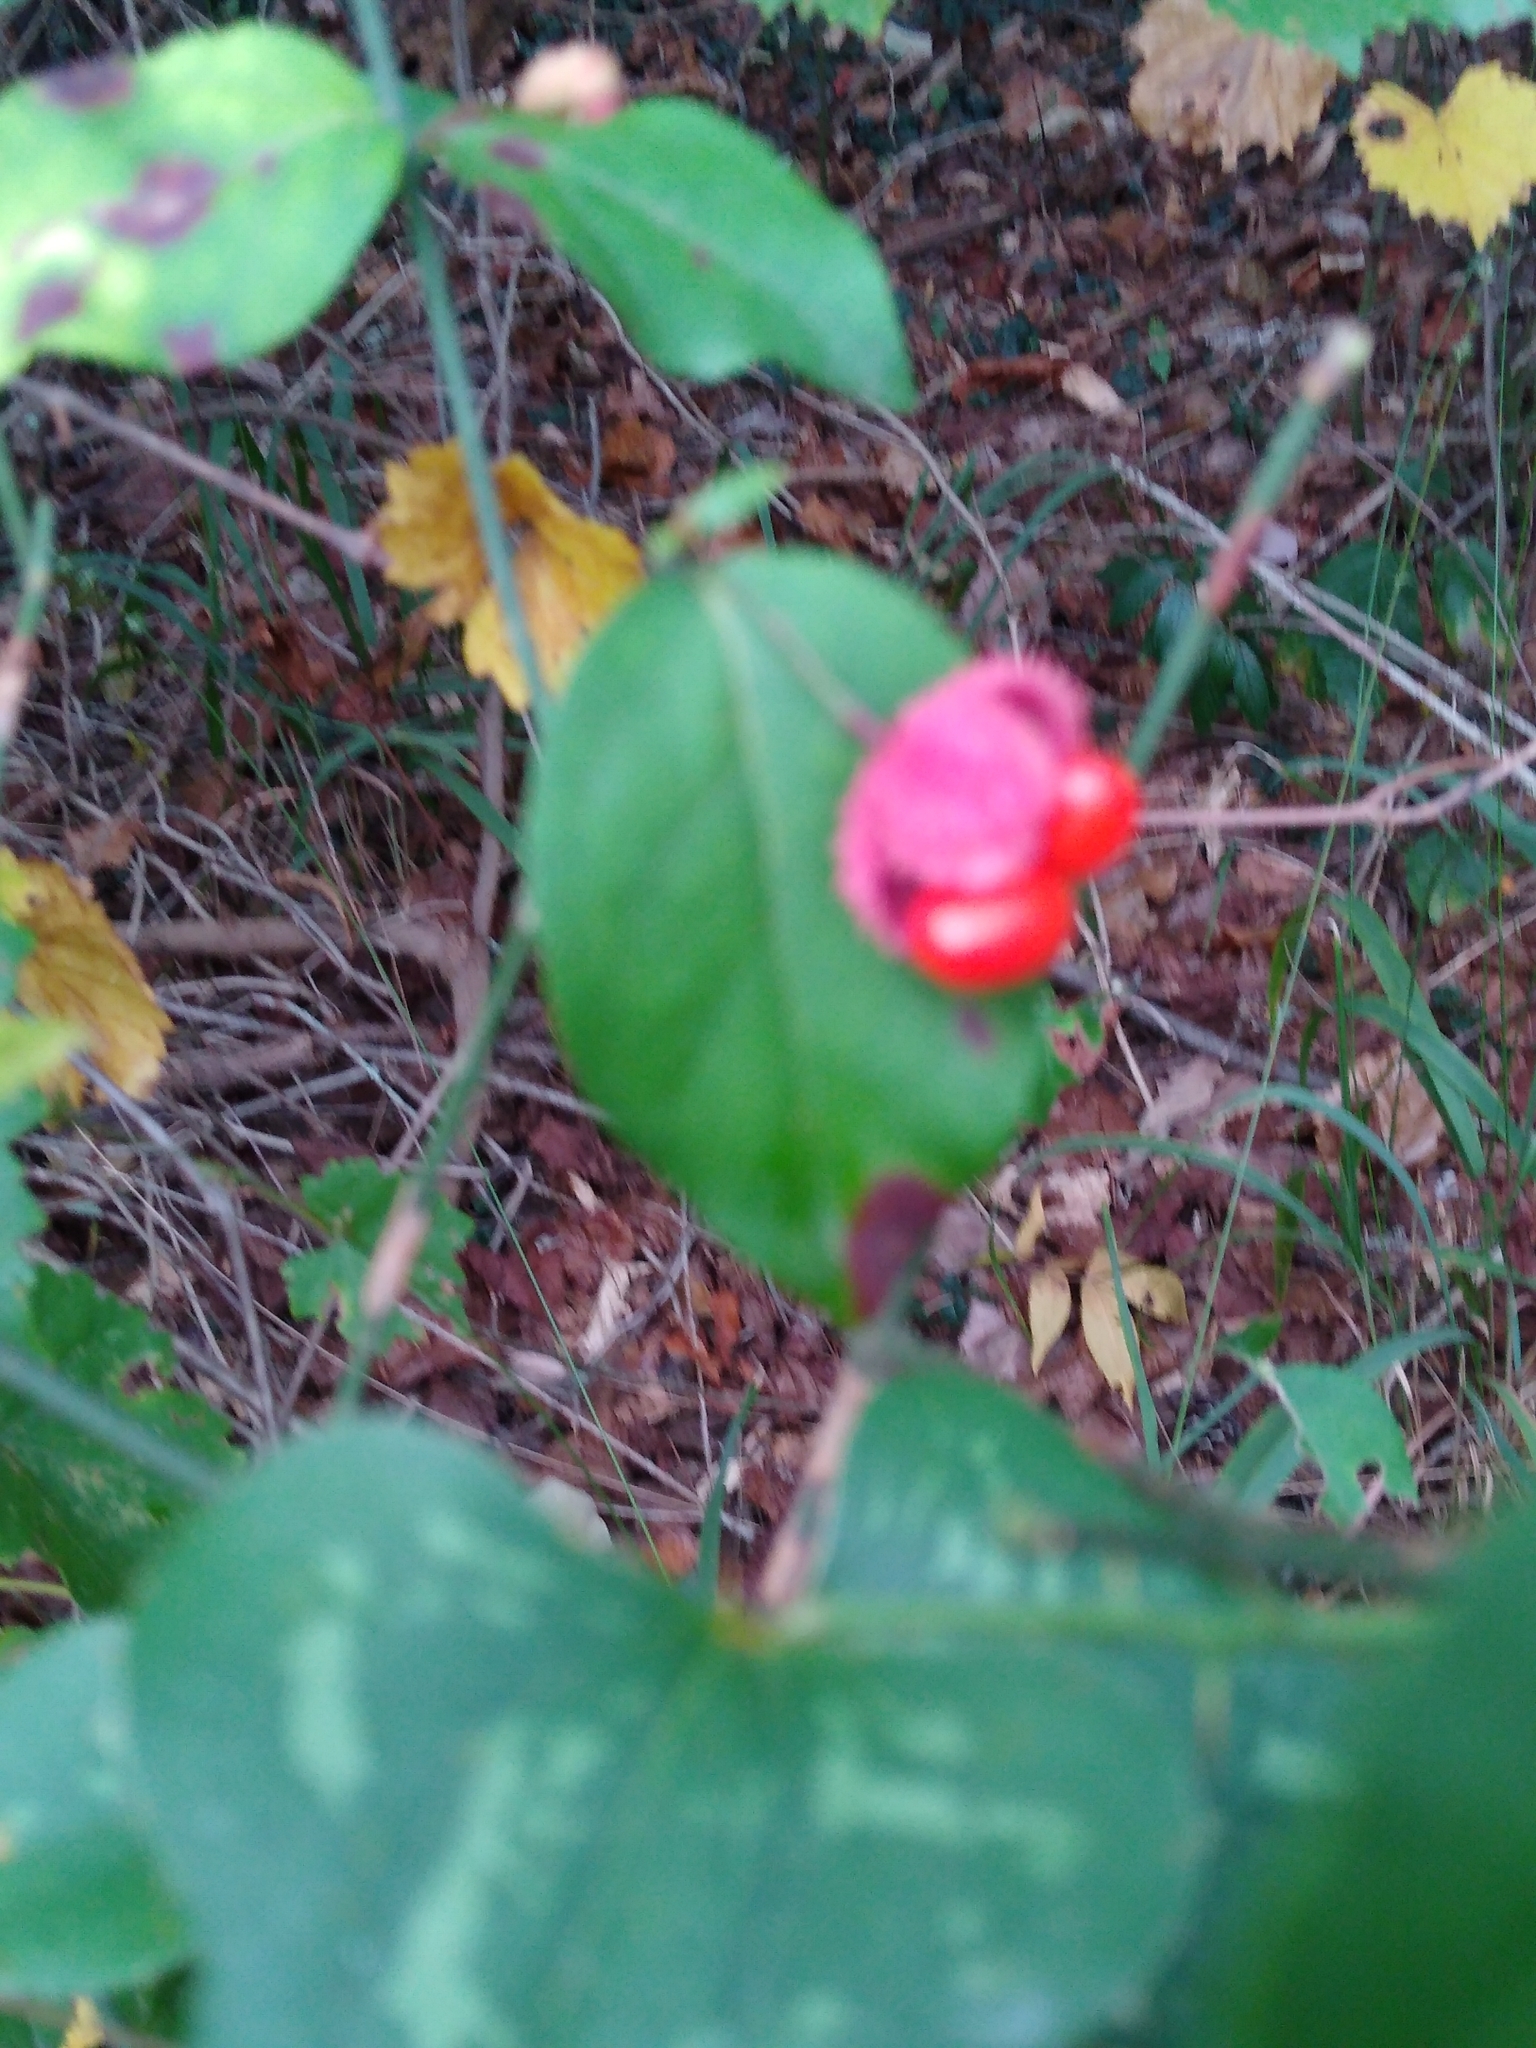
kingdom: Plantae
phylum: Tracheophyta
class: Magnoliopsida
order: Celastrales
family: Celastraceae
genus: Euonymus
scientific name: Euonymus americanus
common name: Bursting-heart
